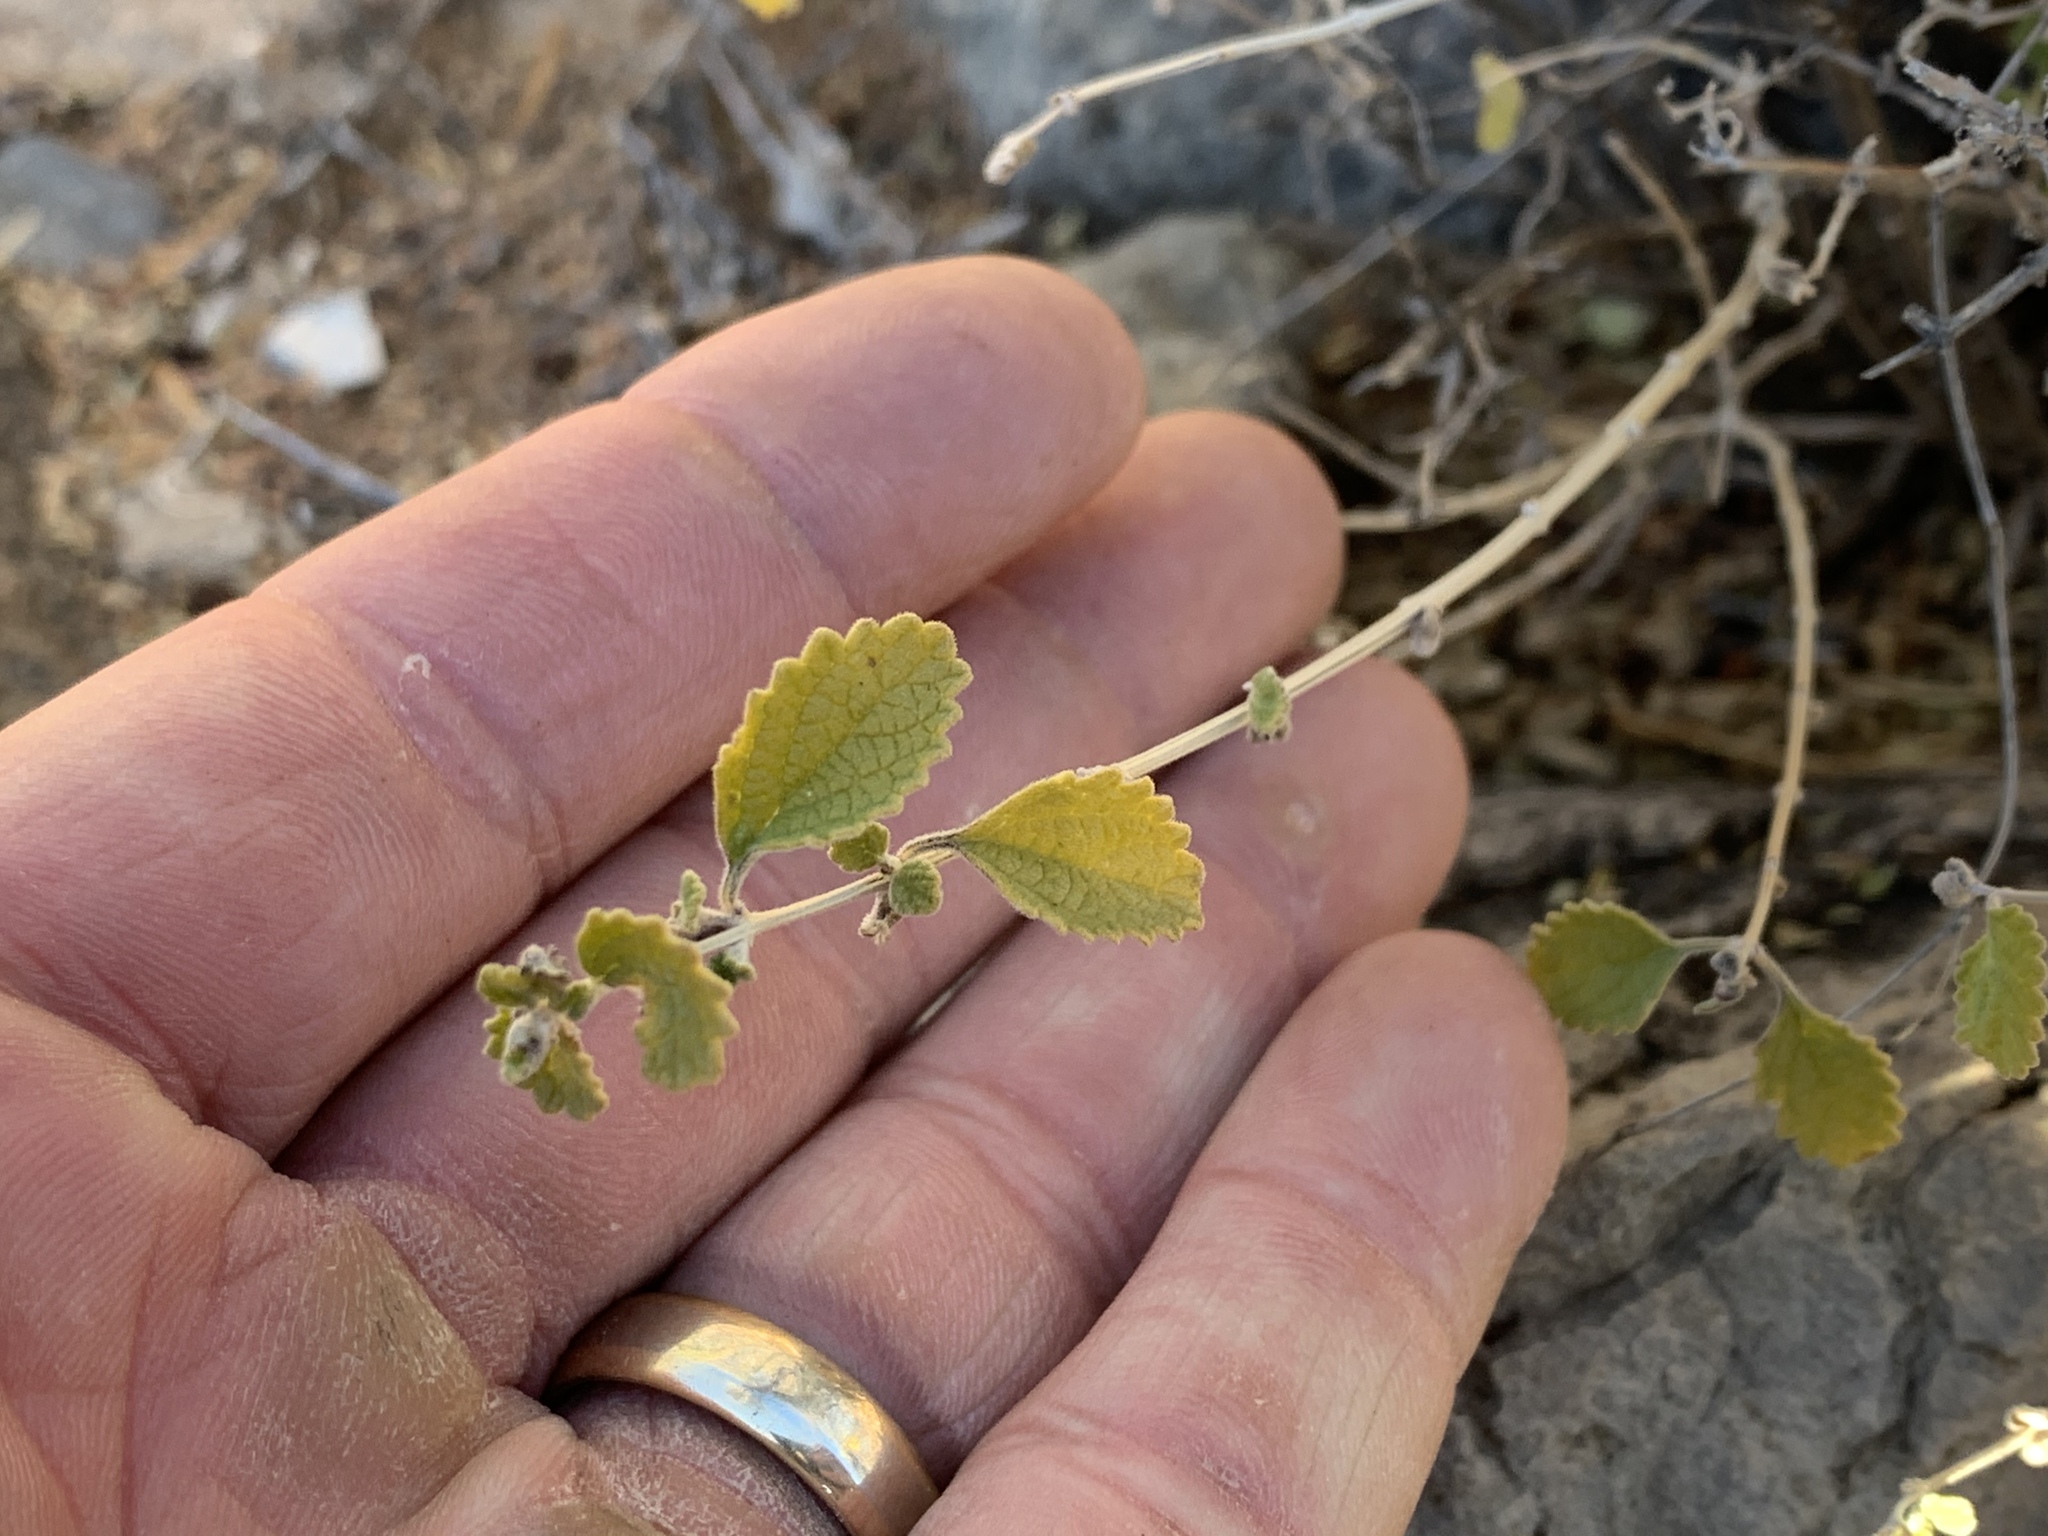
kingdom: Plantae
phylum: Tracheophyta
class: Magnoliopsida
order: Lamiales
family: Verbenaceae
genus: Aloysia
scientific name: Aloysia wrightii
